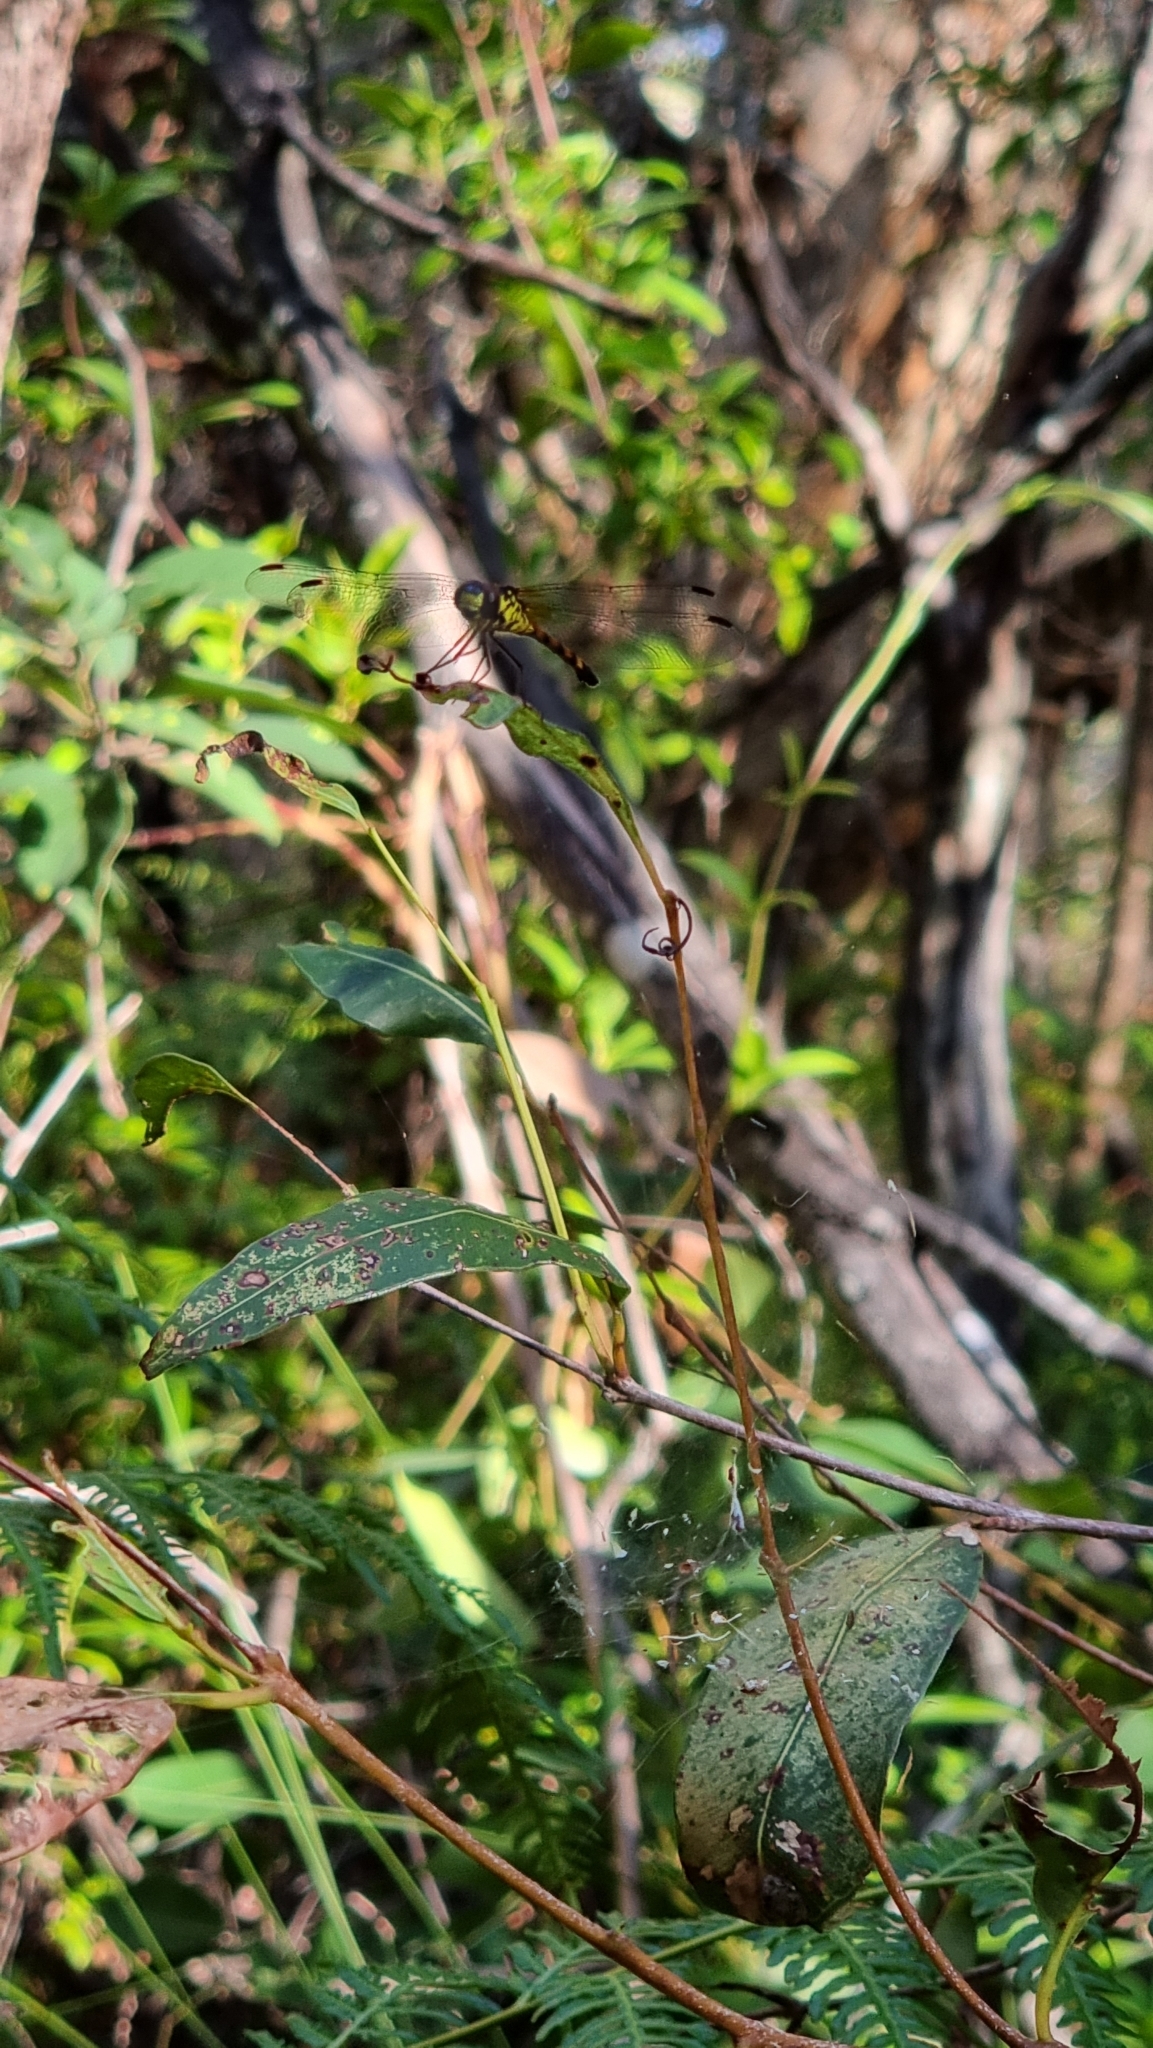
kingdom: Animalia
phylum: Arthropoda
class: Insecta
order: Odonata
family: Libellulidae
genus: Agrionoptera
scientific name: Agrionoptera insignis
